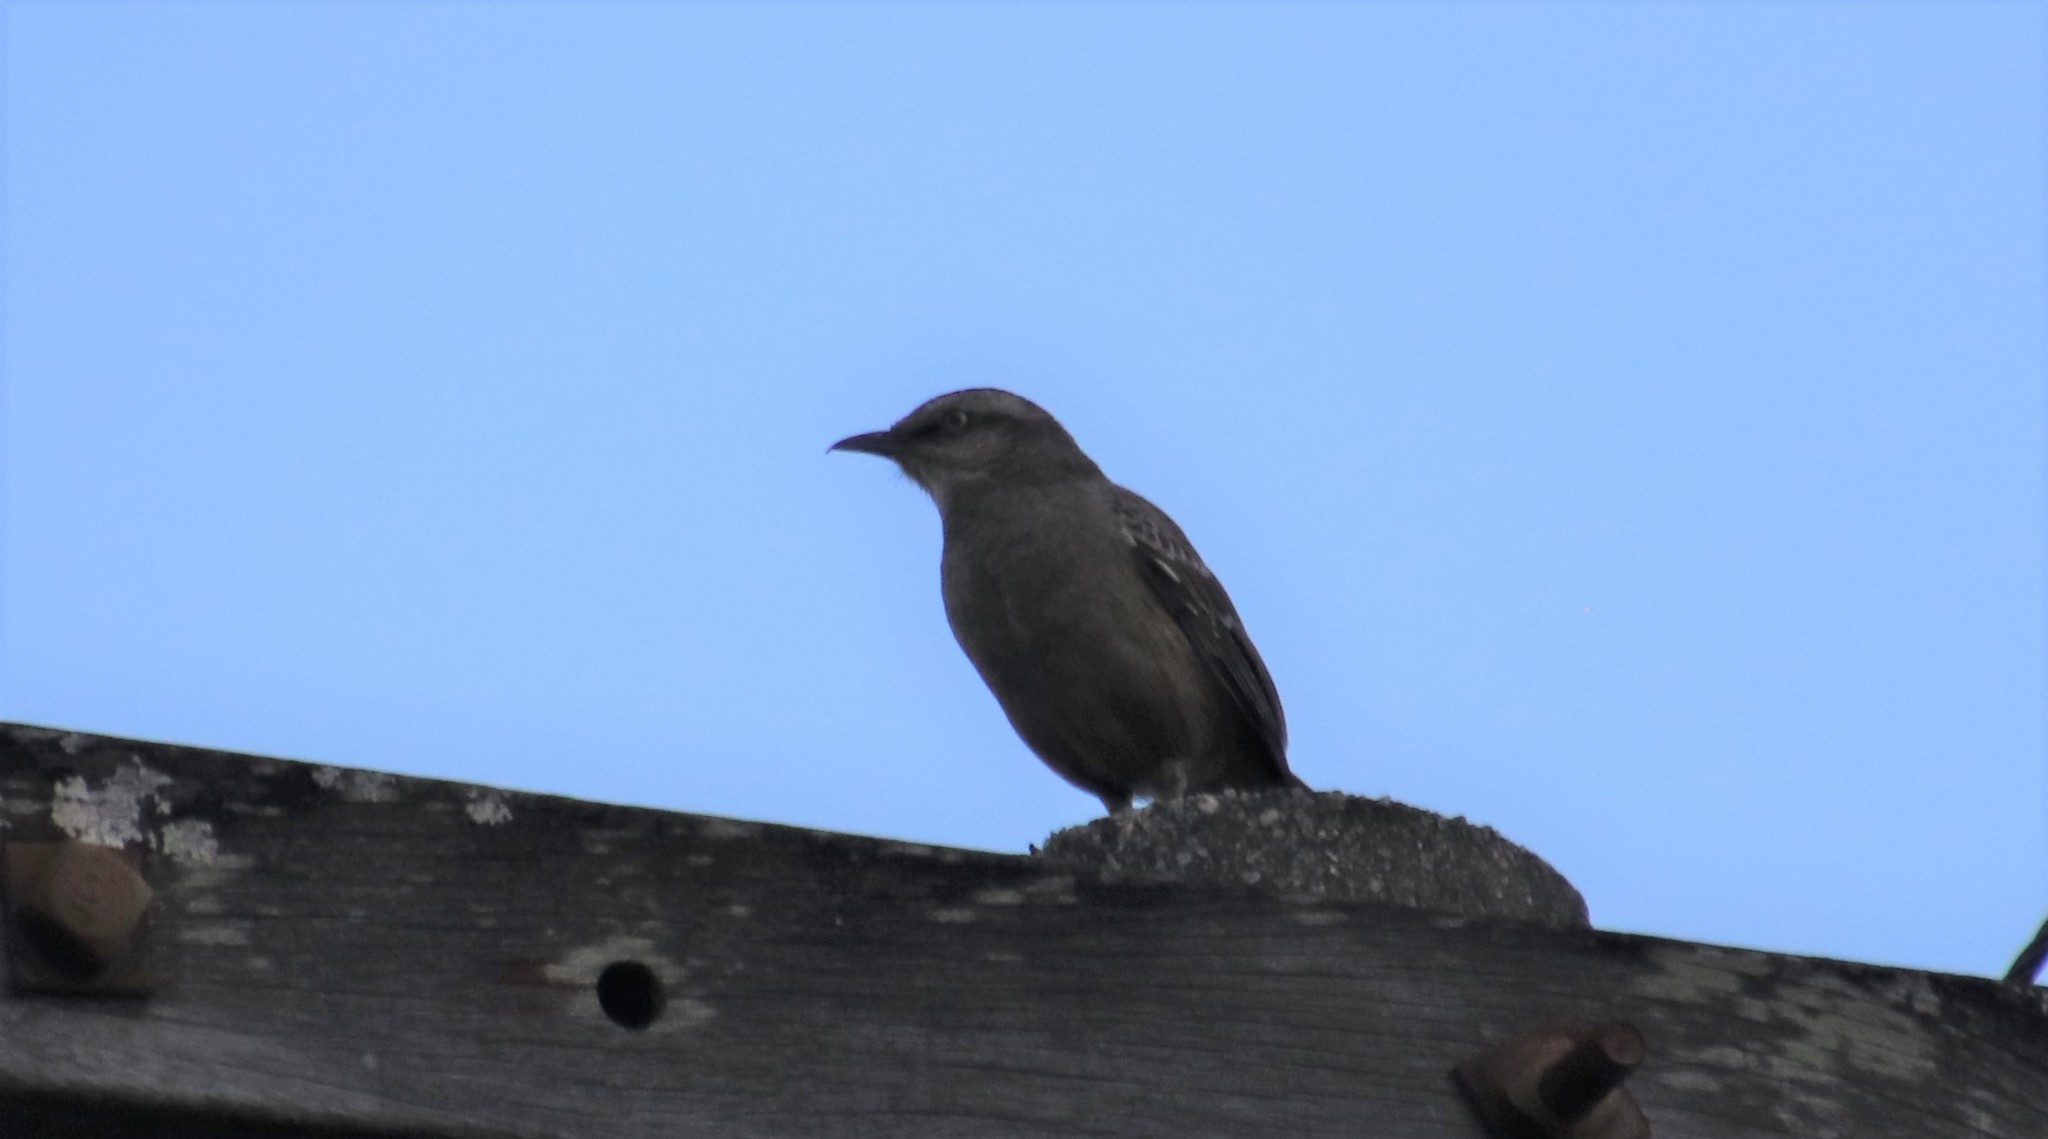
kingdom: Animalia
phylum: Chordata
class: Aves
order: Passeriformes
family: Mimidae
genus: Mimus
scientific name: Mimus saturninus
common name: Chalk-browed mockingbird
